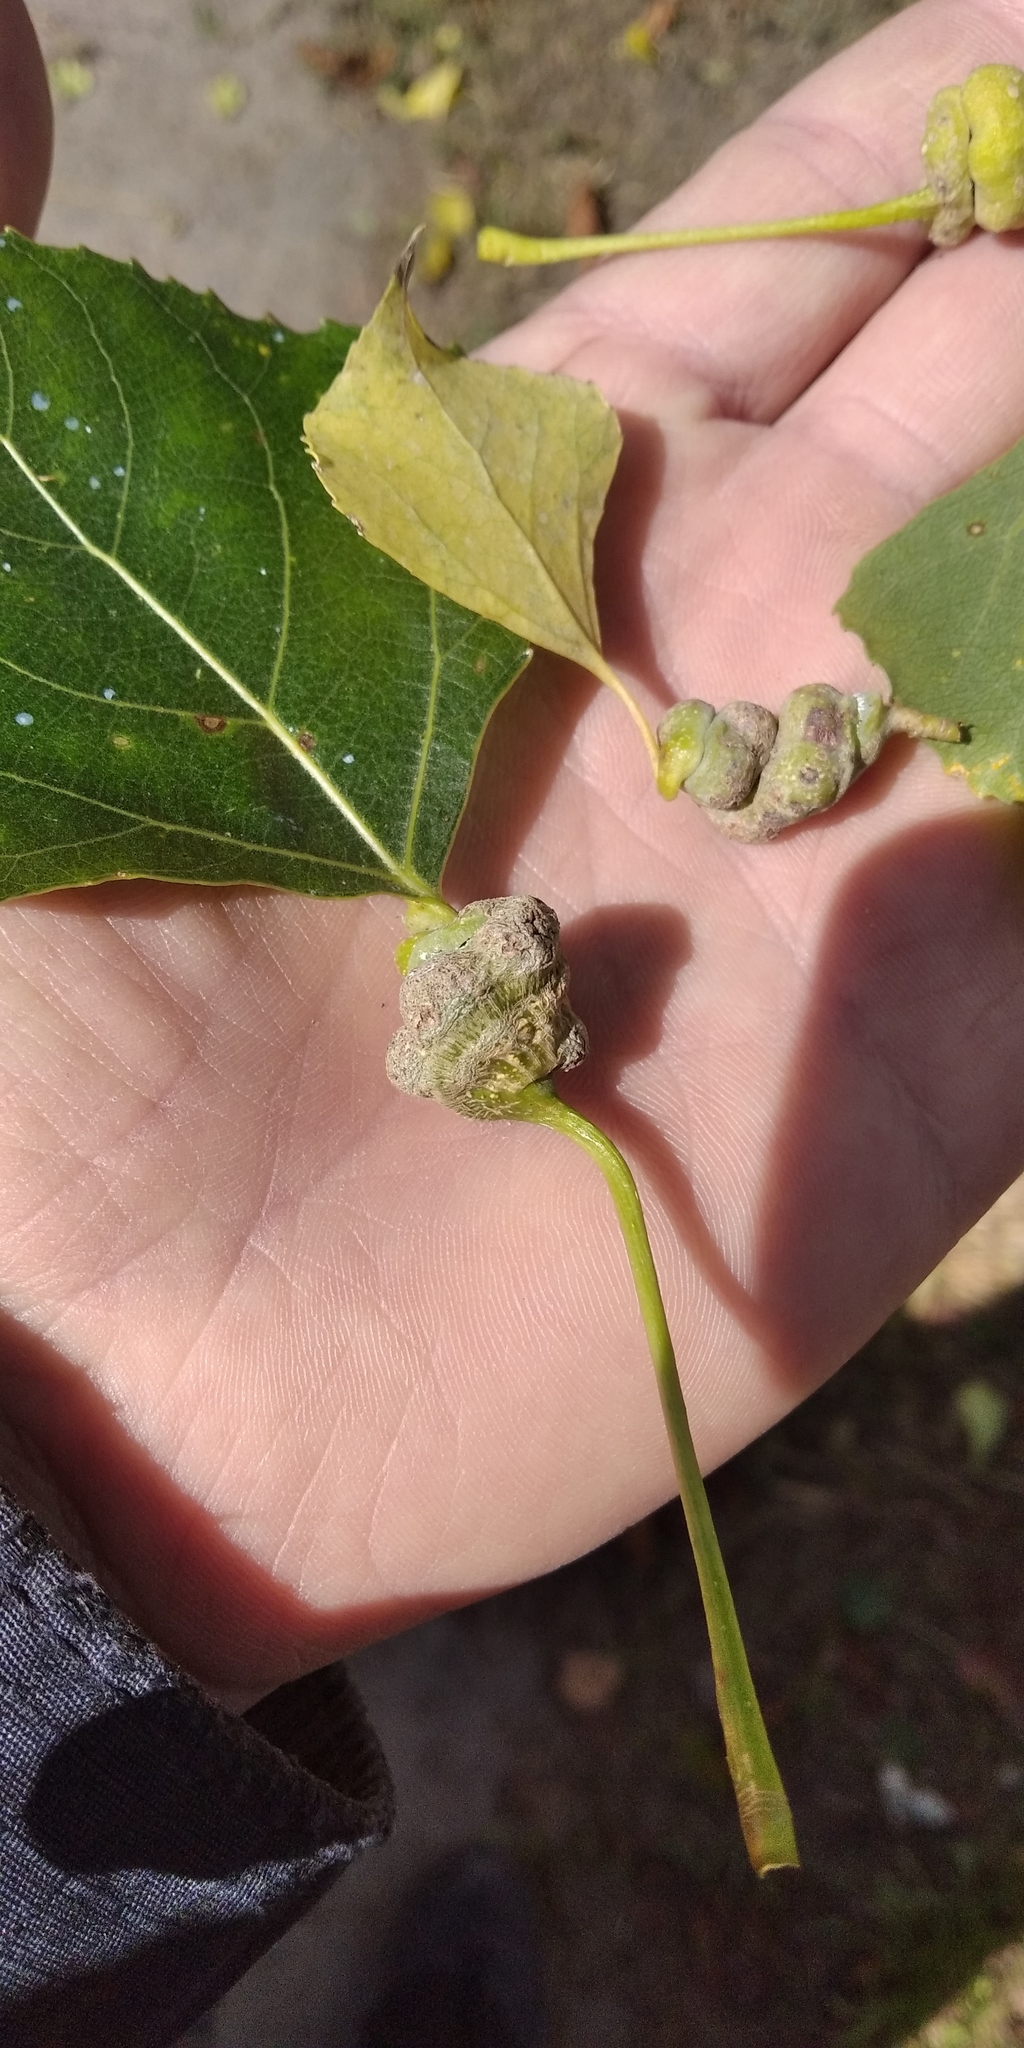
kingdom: Animalia
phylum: Arthropoda
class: Insecta
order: Hemiptera
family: Aphididae
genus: Pemphigus
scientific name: Pemphigus spyrothecae
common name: Aphid
